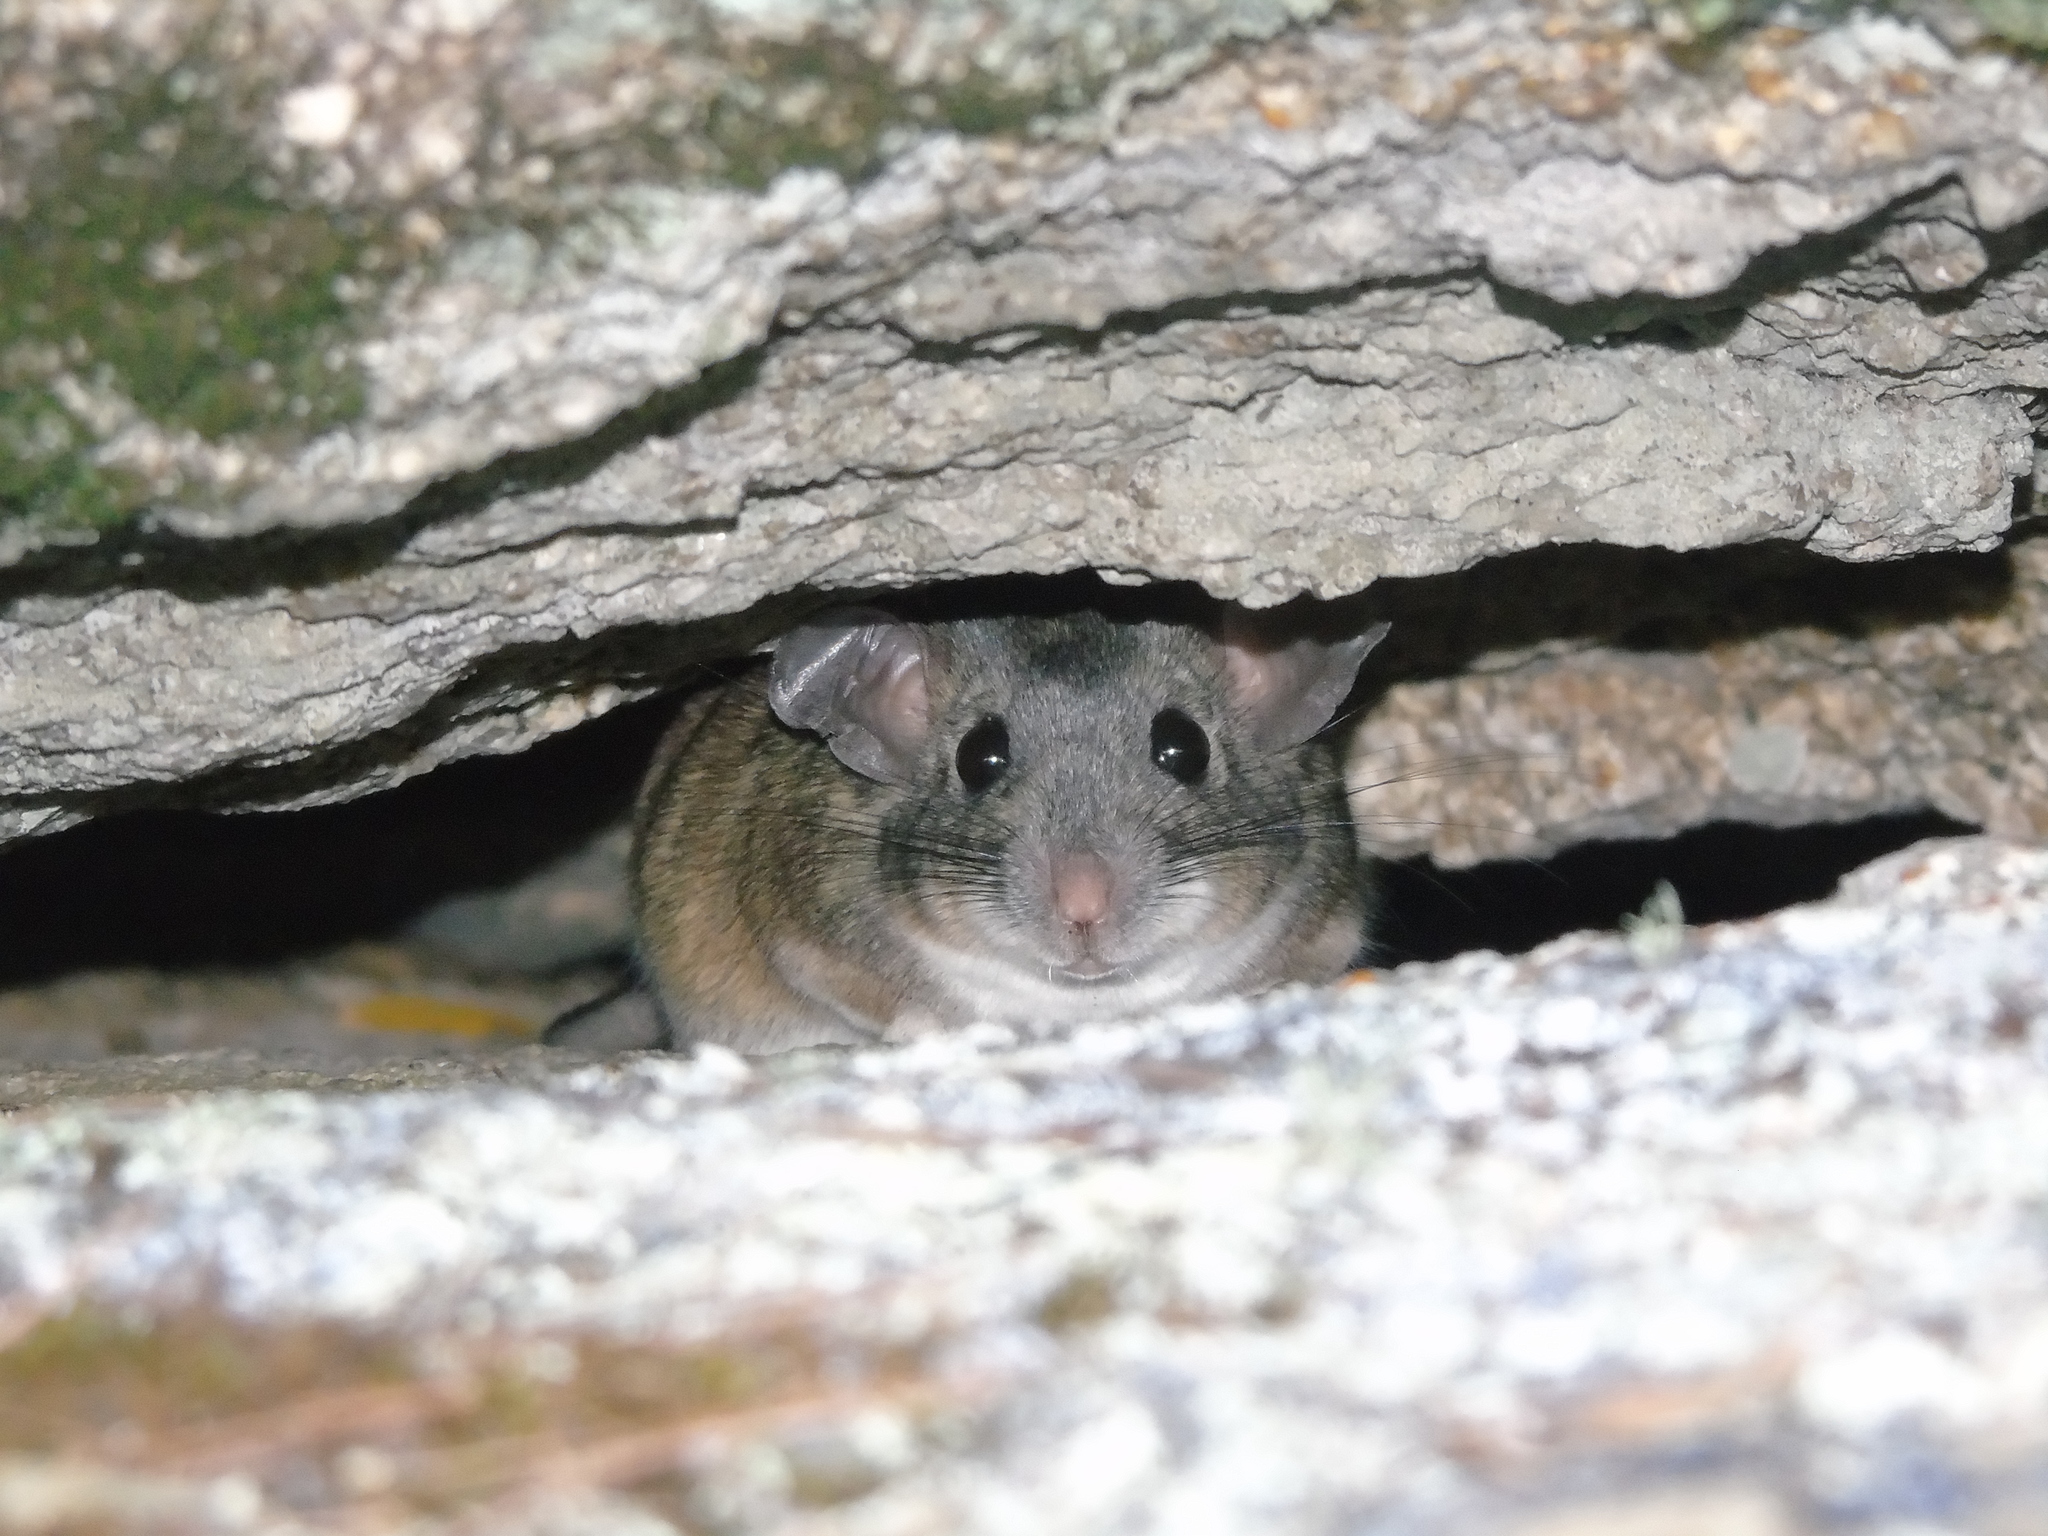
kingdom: Animalia
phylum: Chordata
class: Mammalia
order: Rodentia
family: Cricetidae
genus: Neotoma
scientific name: Neotoma bryanti
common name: Bryant's woodrat
